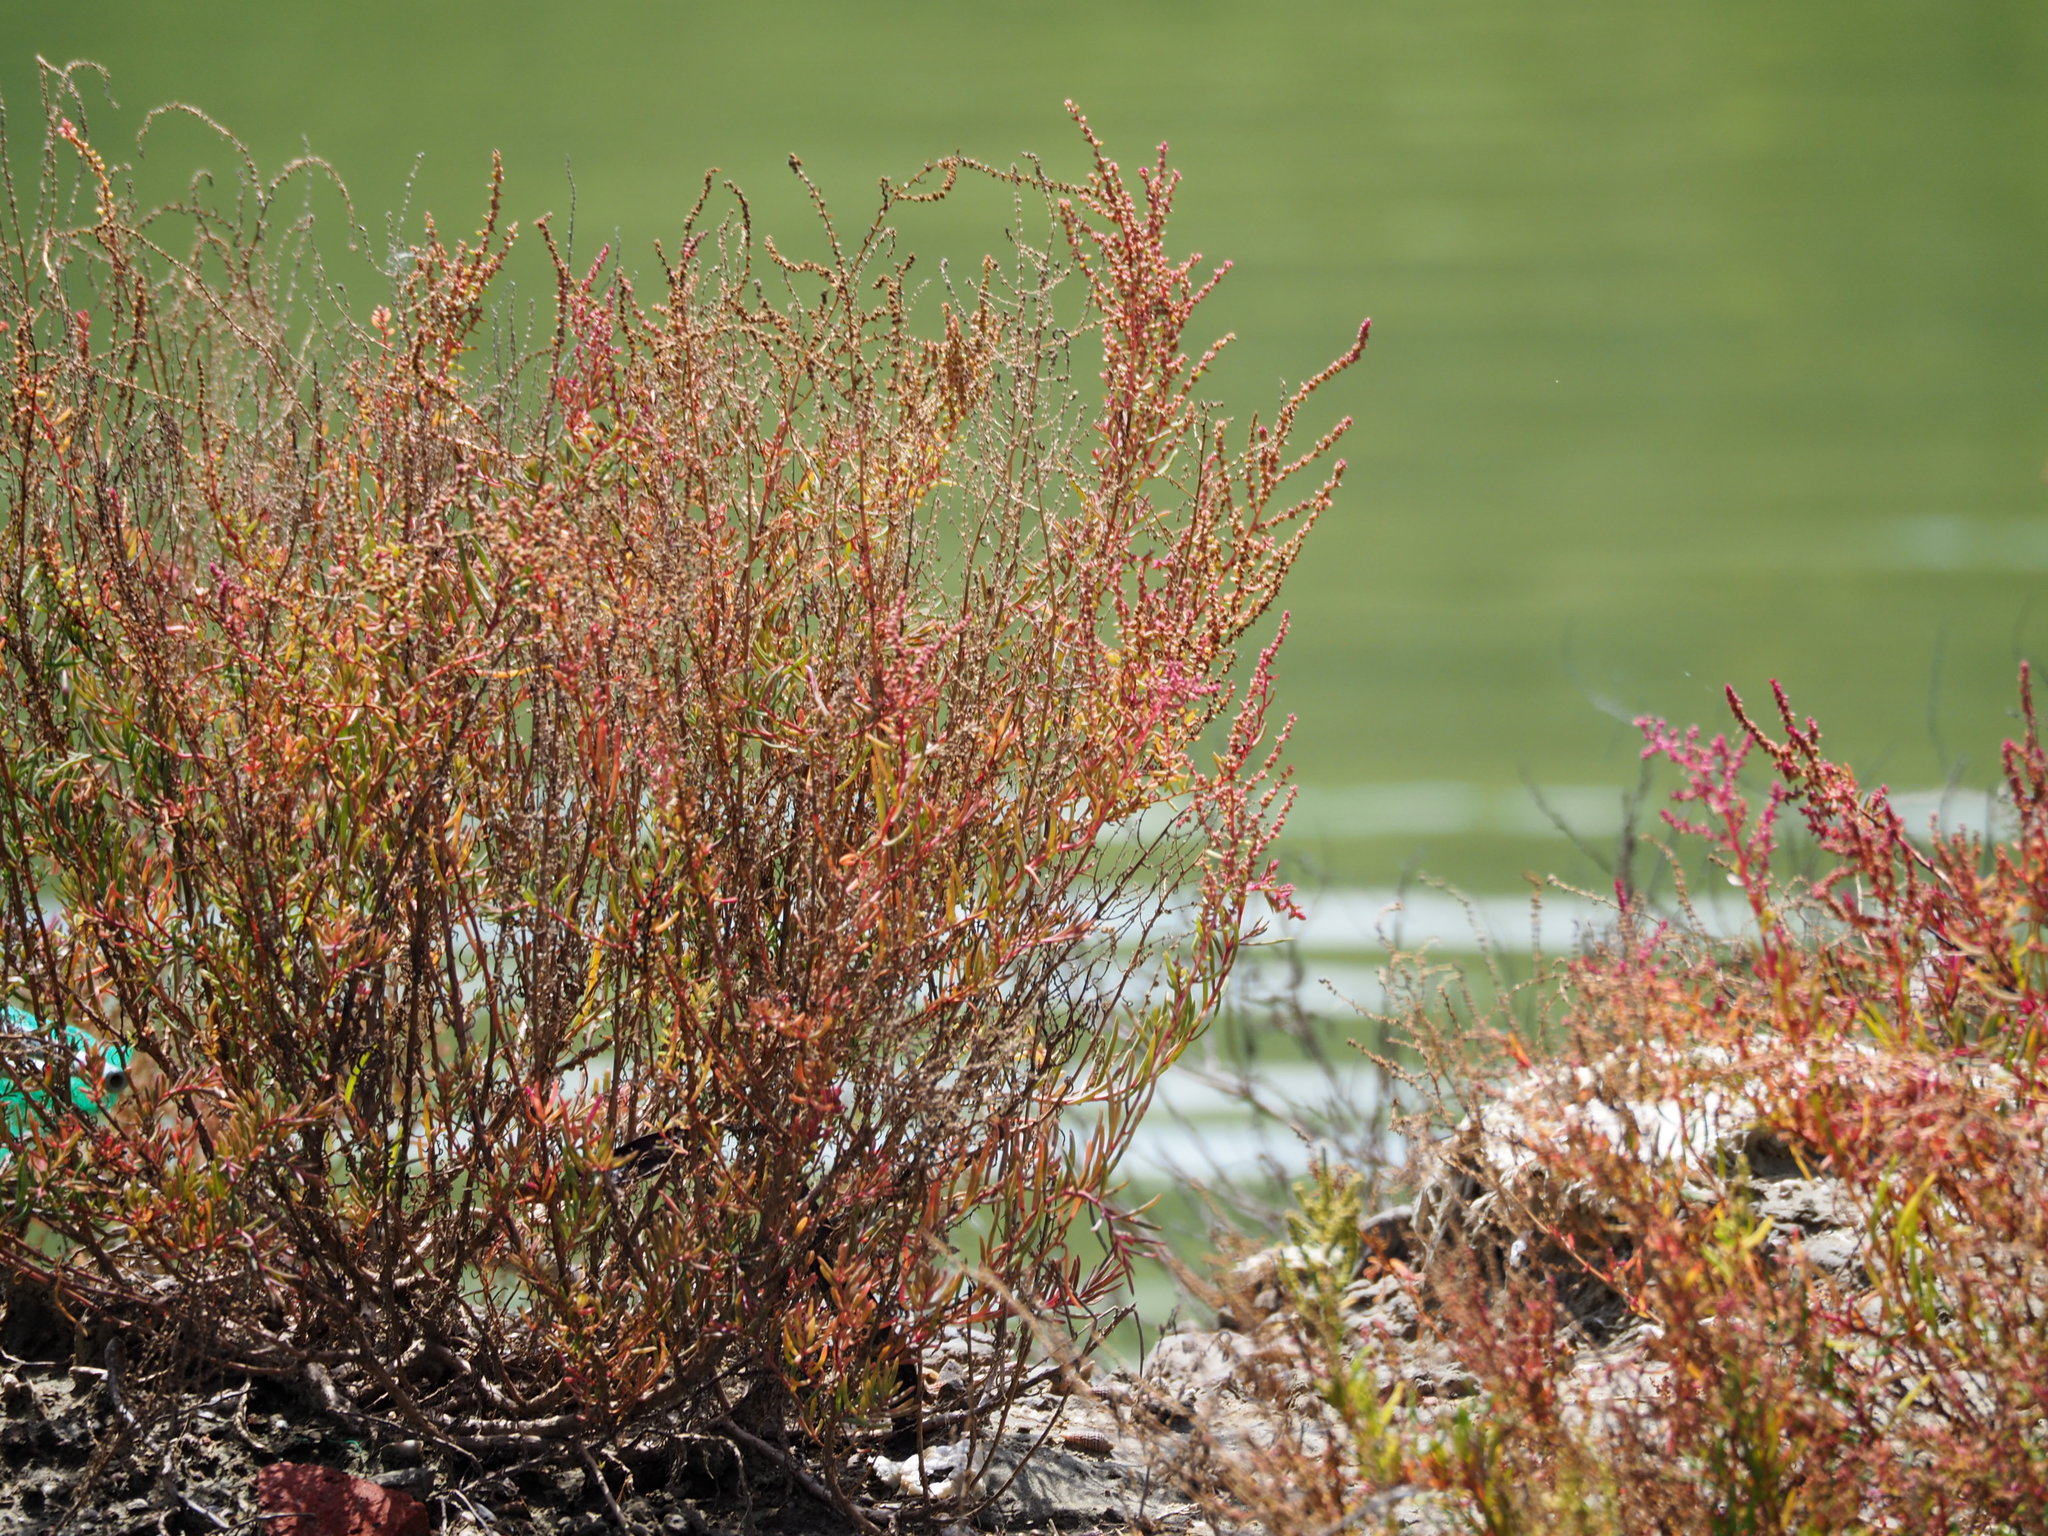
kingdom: Plantae
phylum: Tracheophyta
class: Magnoliopsida
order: Caryophyllales
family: Amaranthaceae
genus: Suaeda
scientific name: Suaeda maritima
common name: Annual sea-blite
